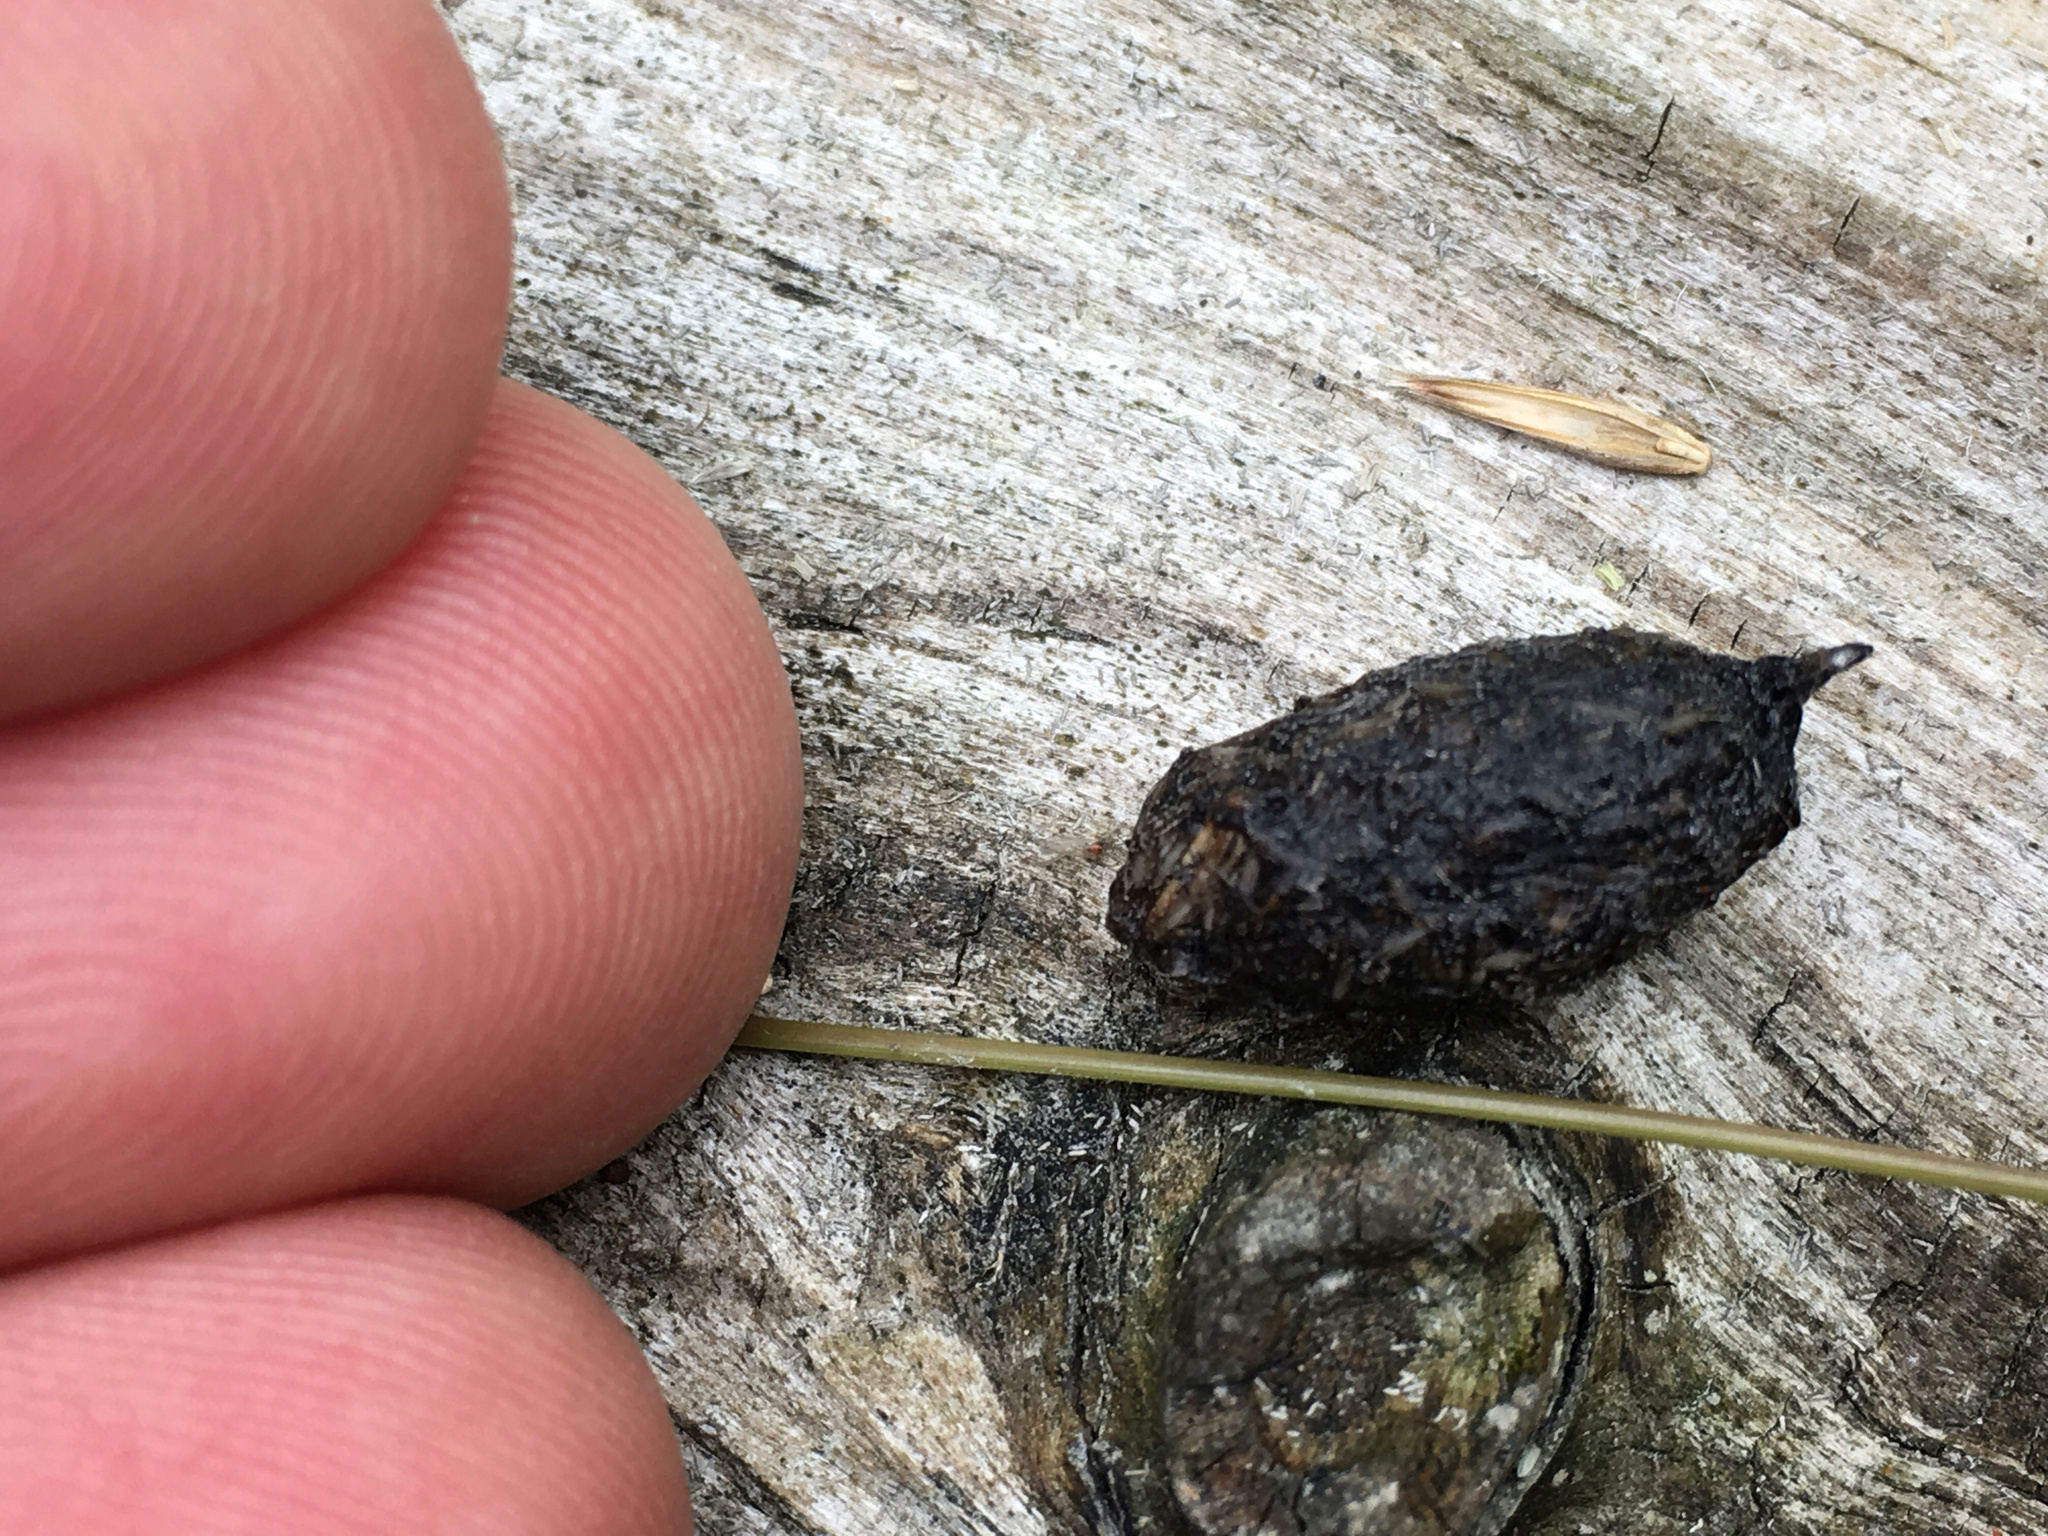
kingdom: Animalia
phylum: Chordata
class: Mammalia
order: Erinaceomorpha
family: Erinaceidae
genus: Erinaceus
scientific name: Erinaceus europaeus
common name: West european hedgehog
